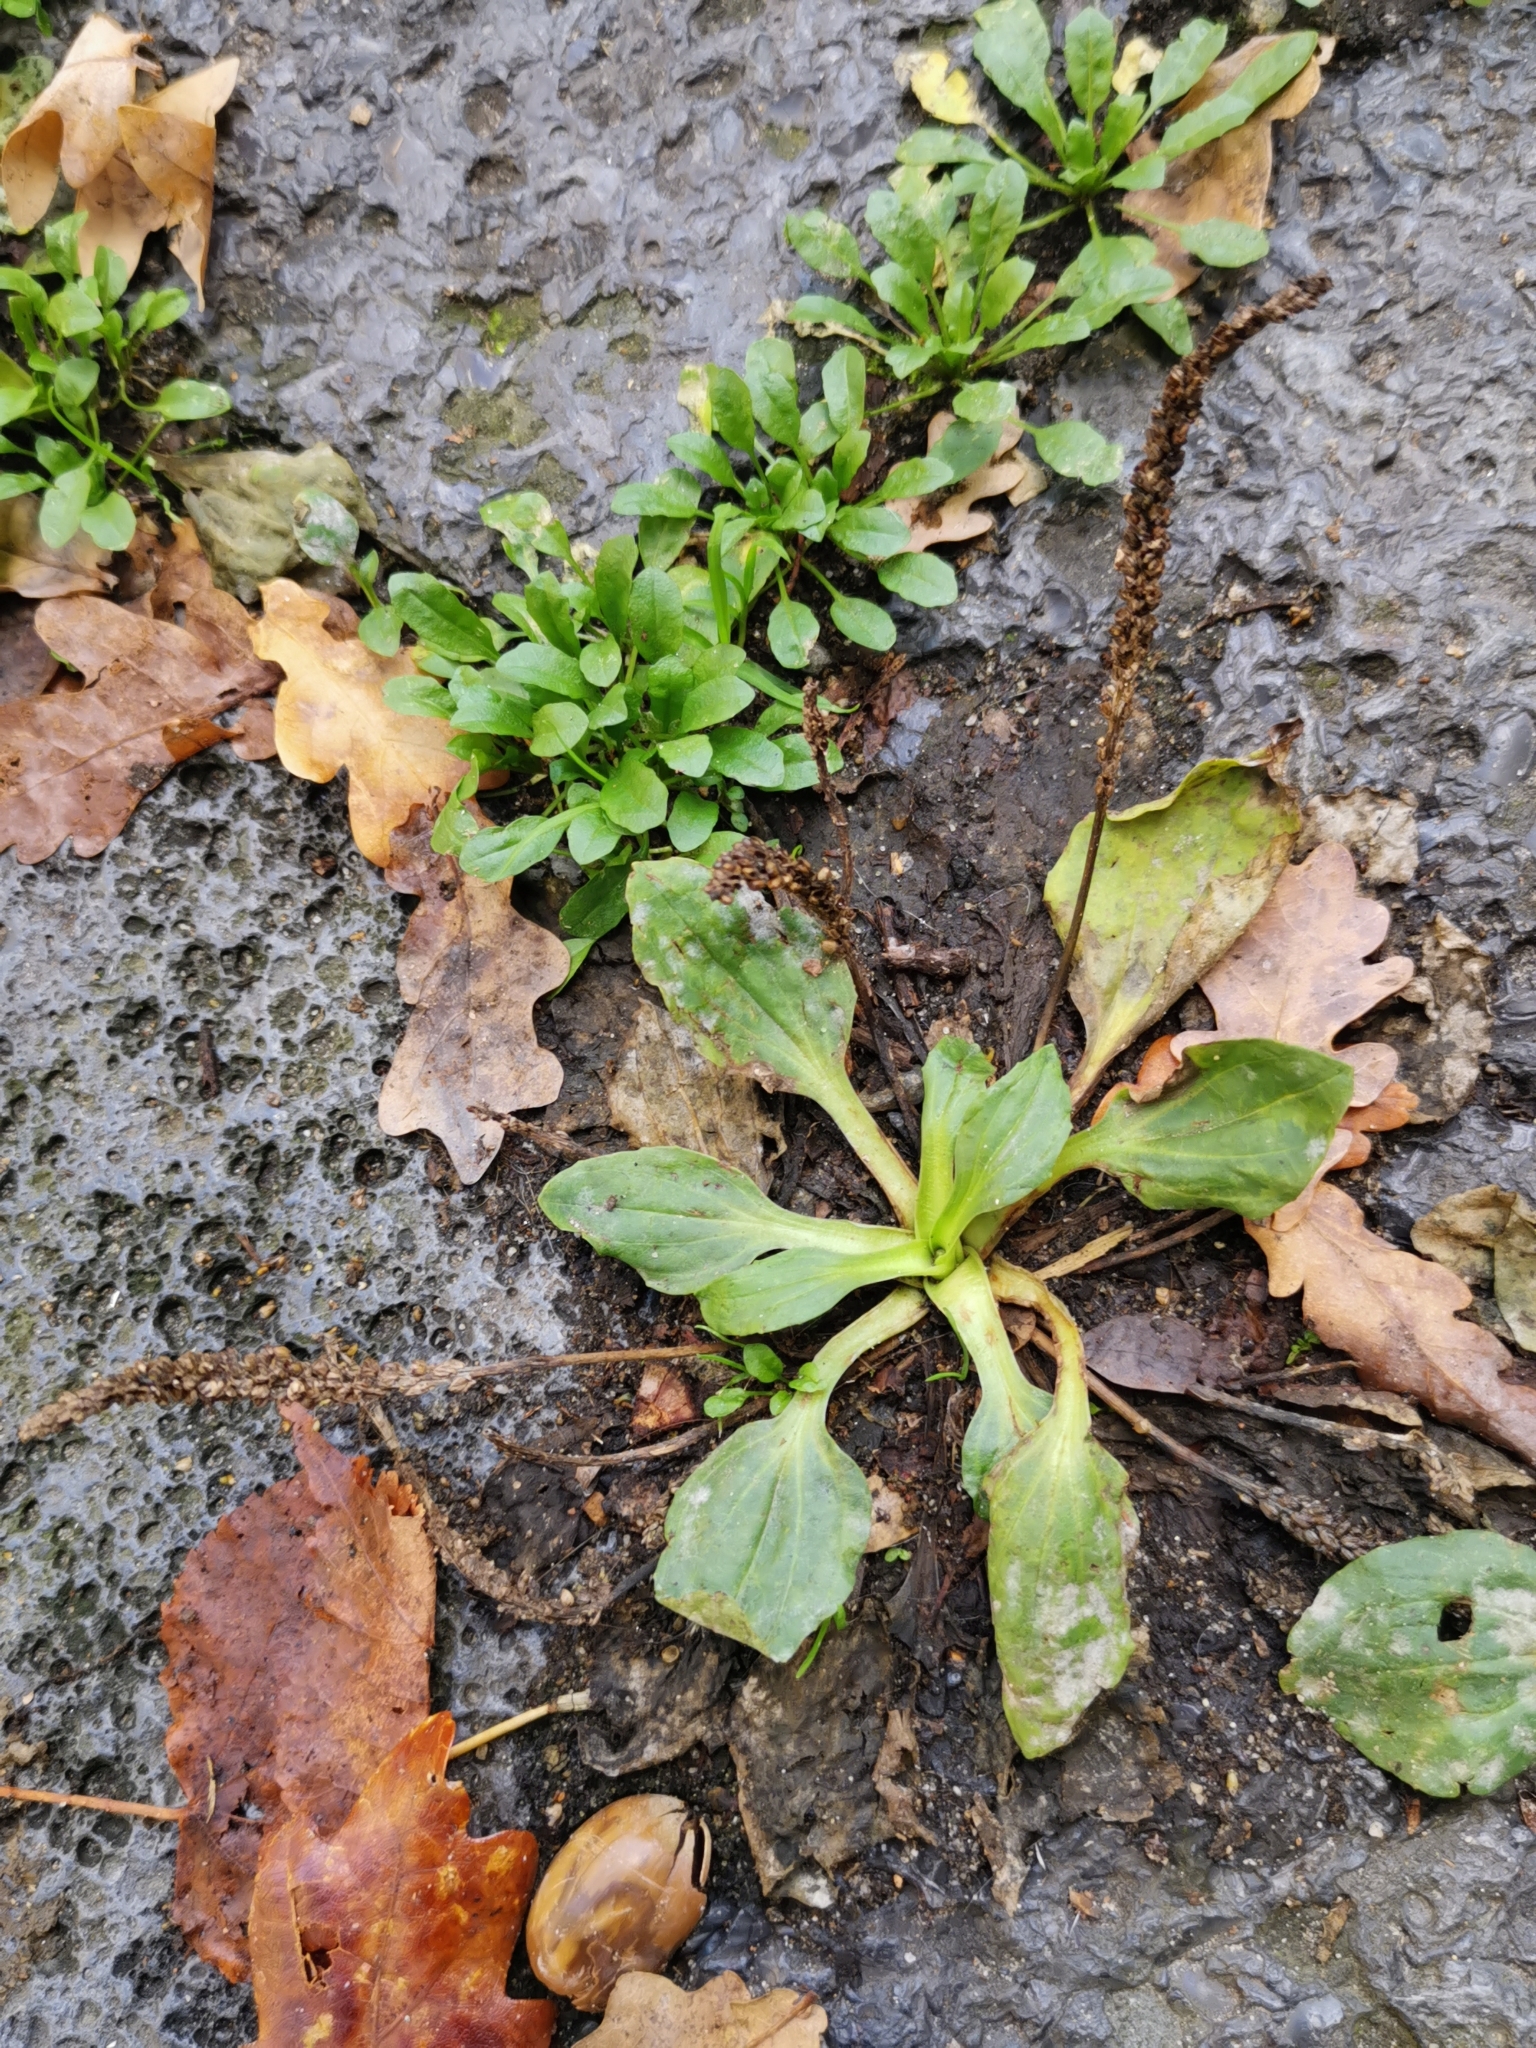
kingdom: Plantae
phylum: Tracheophyta
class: Magnoliopsida
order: Lamiales
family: Plantaginaceae
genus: Plantago
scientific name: Plantago major
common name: Common plantain
